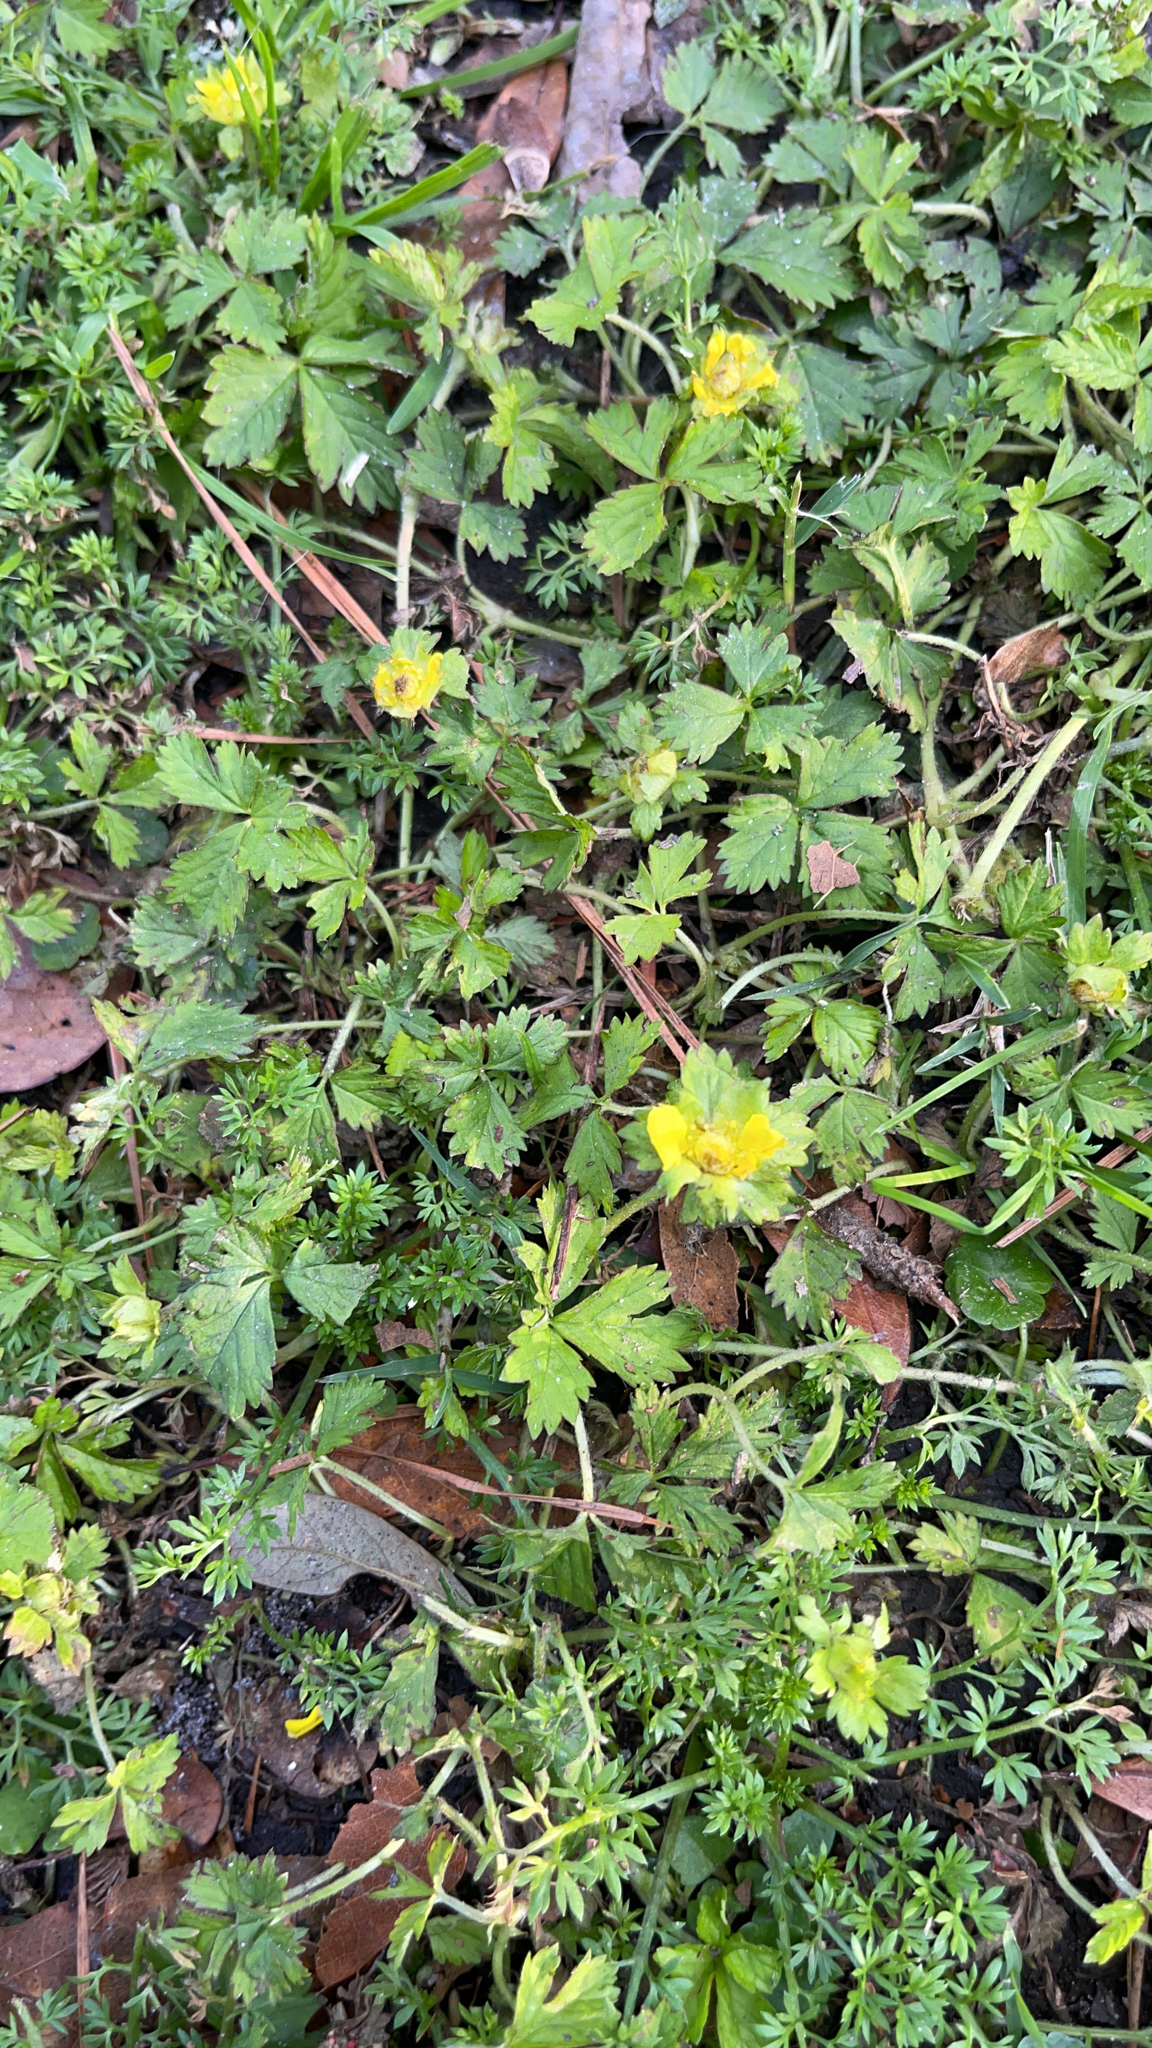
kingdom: Plantae
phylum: Tracheophyta
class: Magnoliopsida
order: Rosales
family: Rosaceae
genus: Potentilla
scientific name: Potentilla indica
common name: Yellow-flowered strawberry
